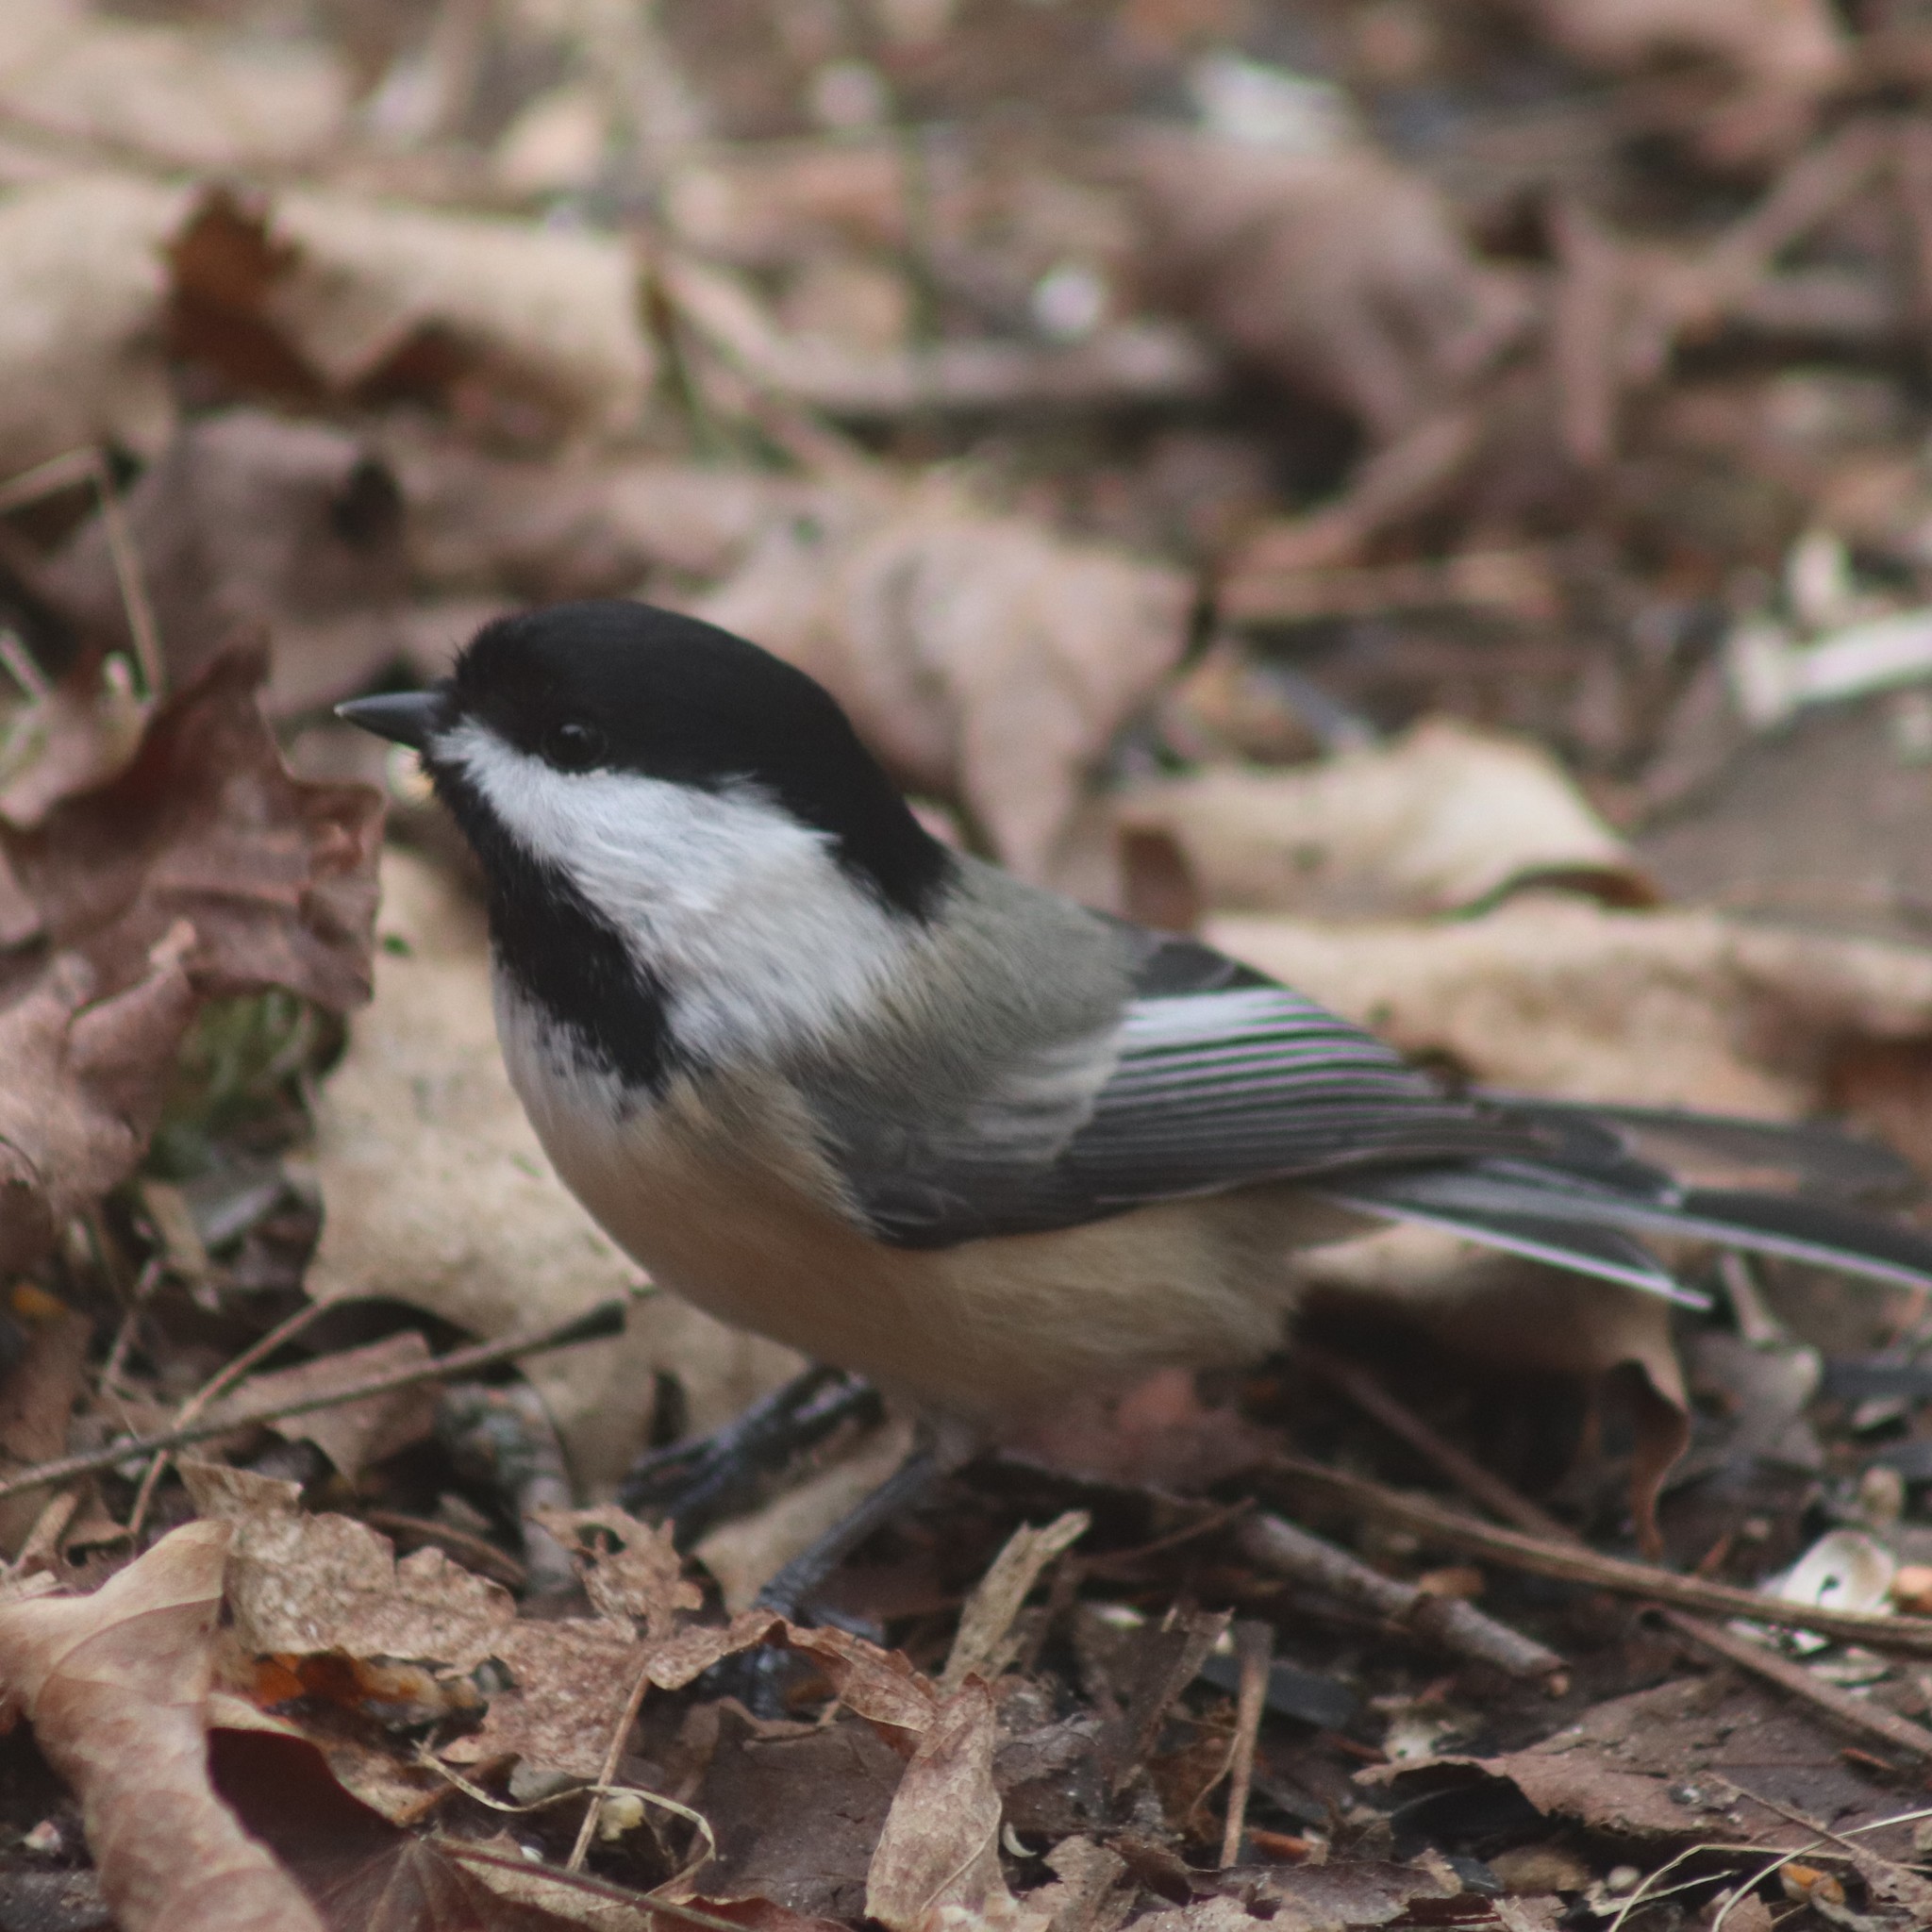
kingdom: Animalia
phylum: Chordata
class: Aves
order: Passeriformes
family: Paridae
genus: Poecile
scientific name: Poecile atricapillus
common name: Black-capped chickadee
